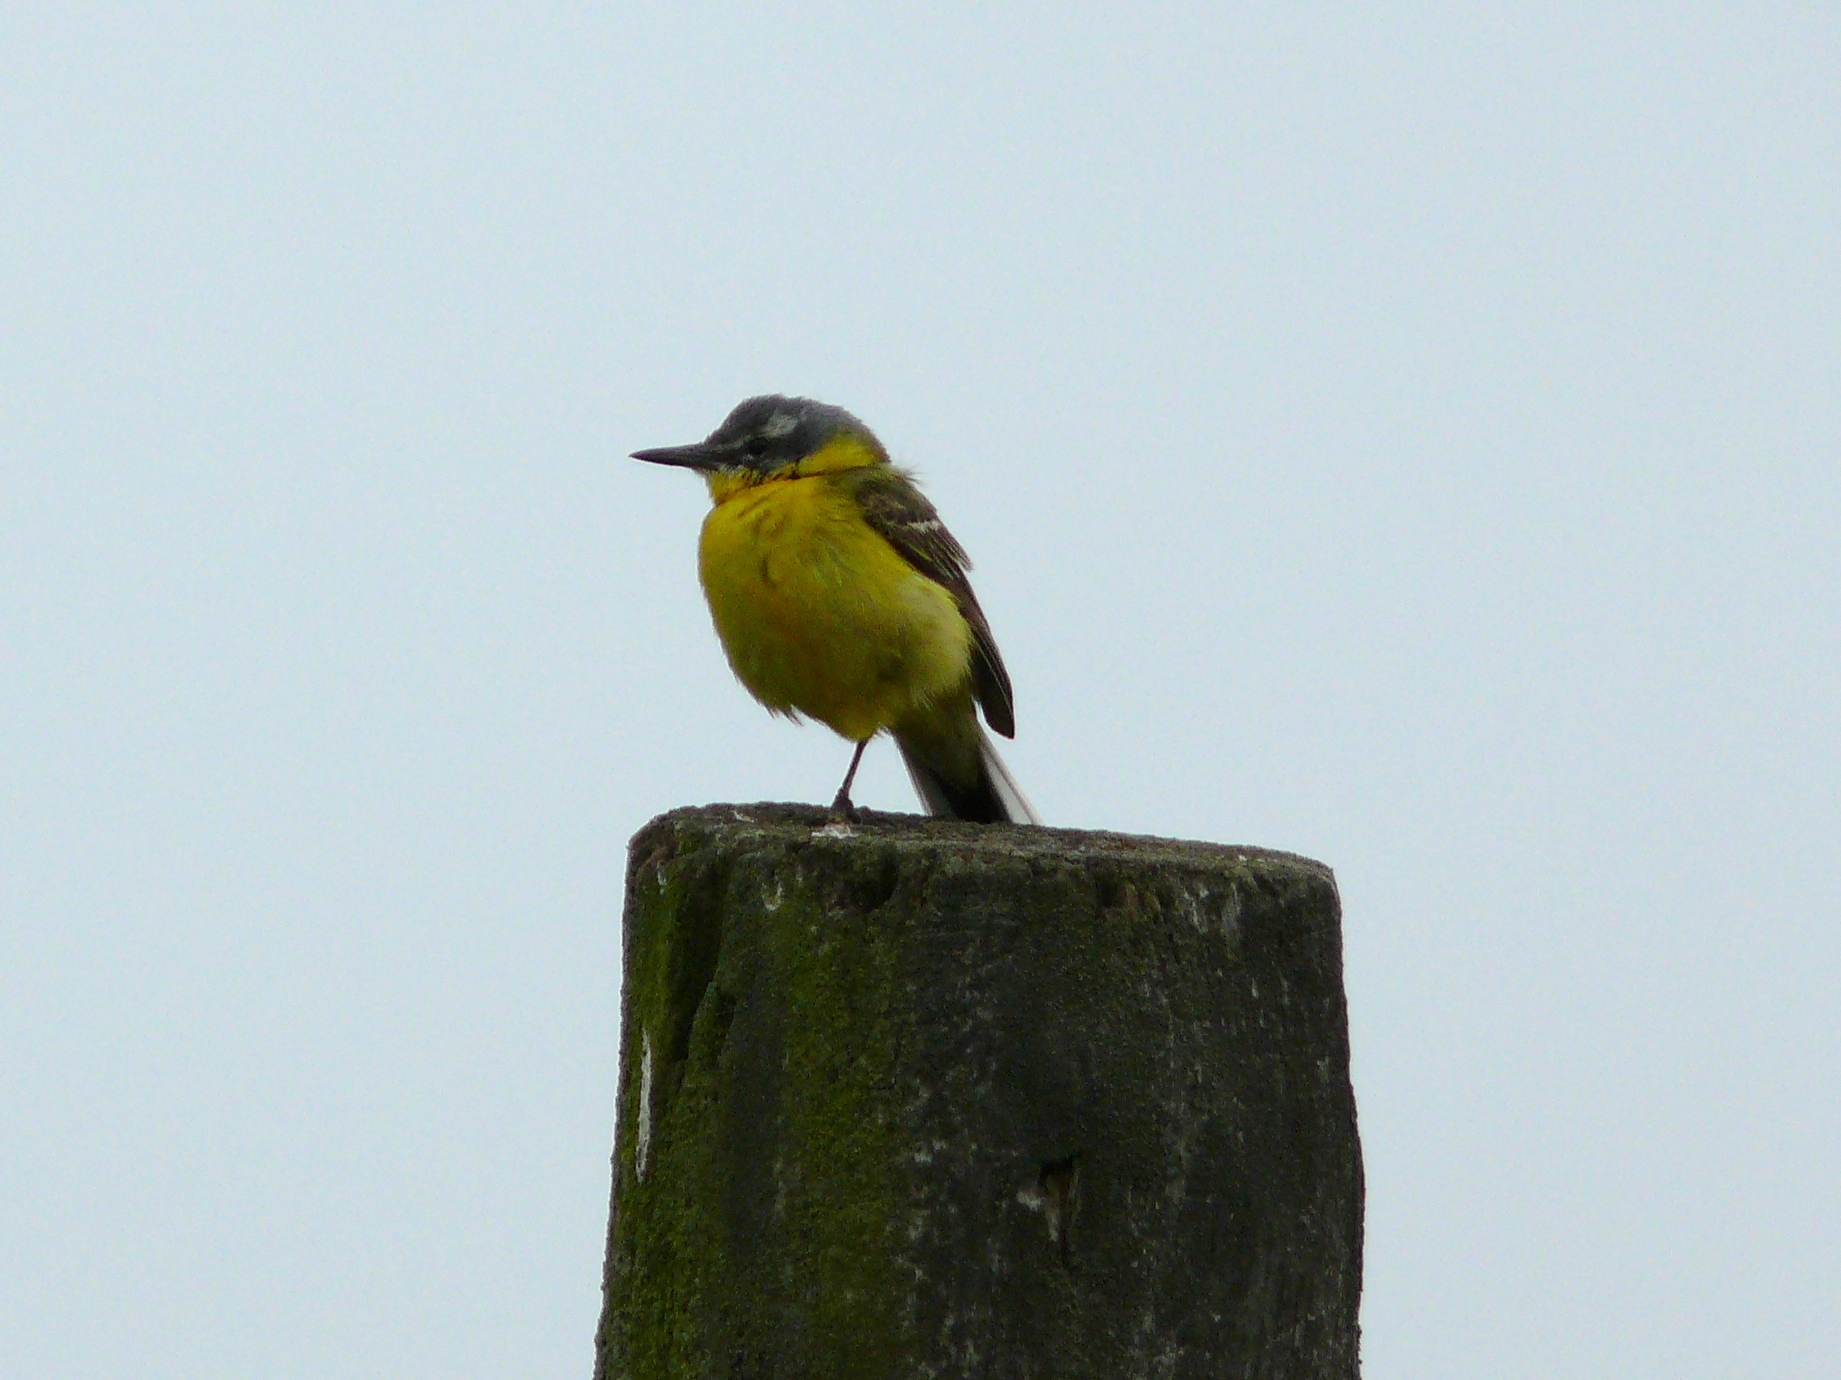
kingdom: Animalia
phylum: Chordata
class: Aves
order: Passeriformes
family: Motacillidae
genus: Motacilla
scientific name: Motacilla flava
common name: Western yellow wagtail
